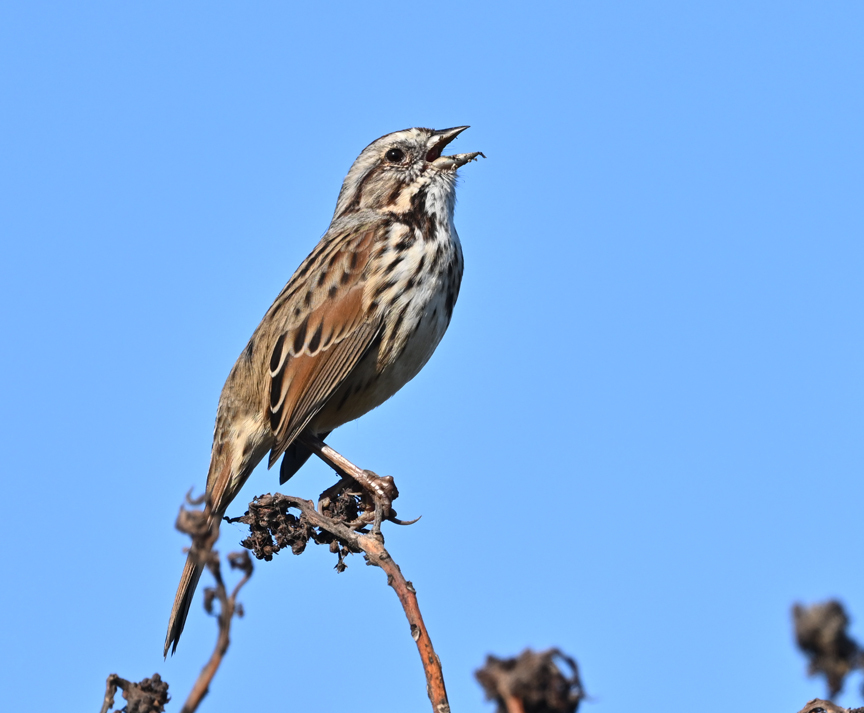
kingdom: Animalia
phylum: Chordata
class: Aves
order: Passeriformes
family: Passerellidae
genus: Melospiza
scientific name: Melospiza melodia
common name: Song sparrow
